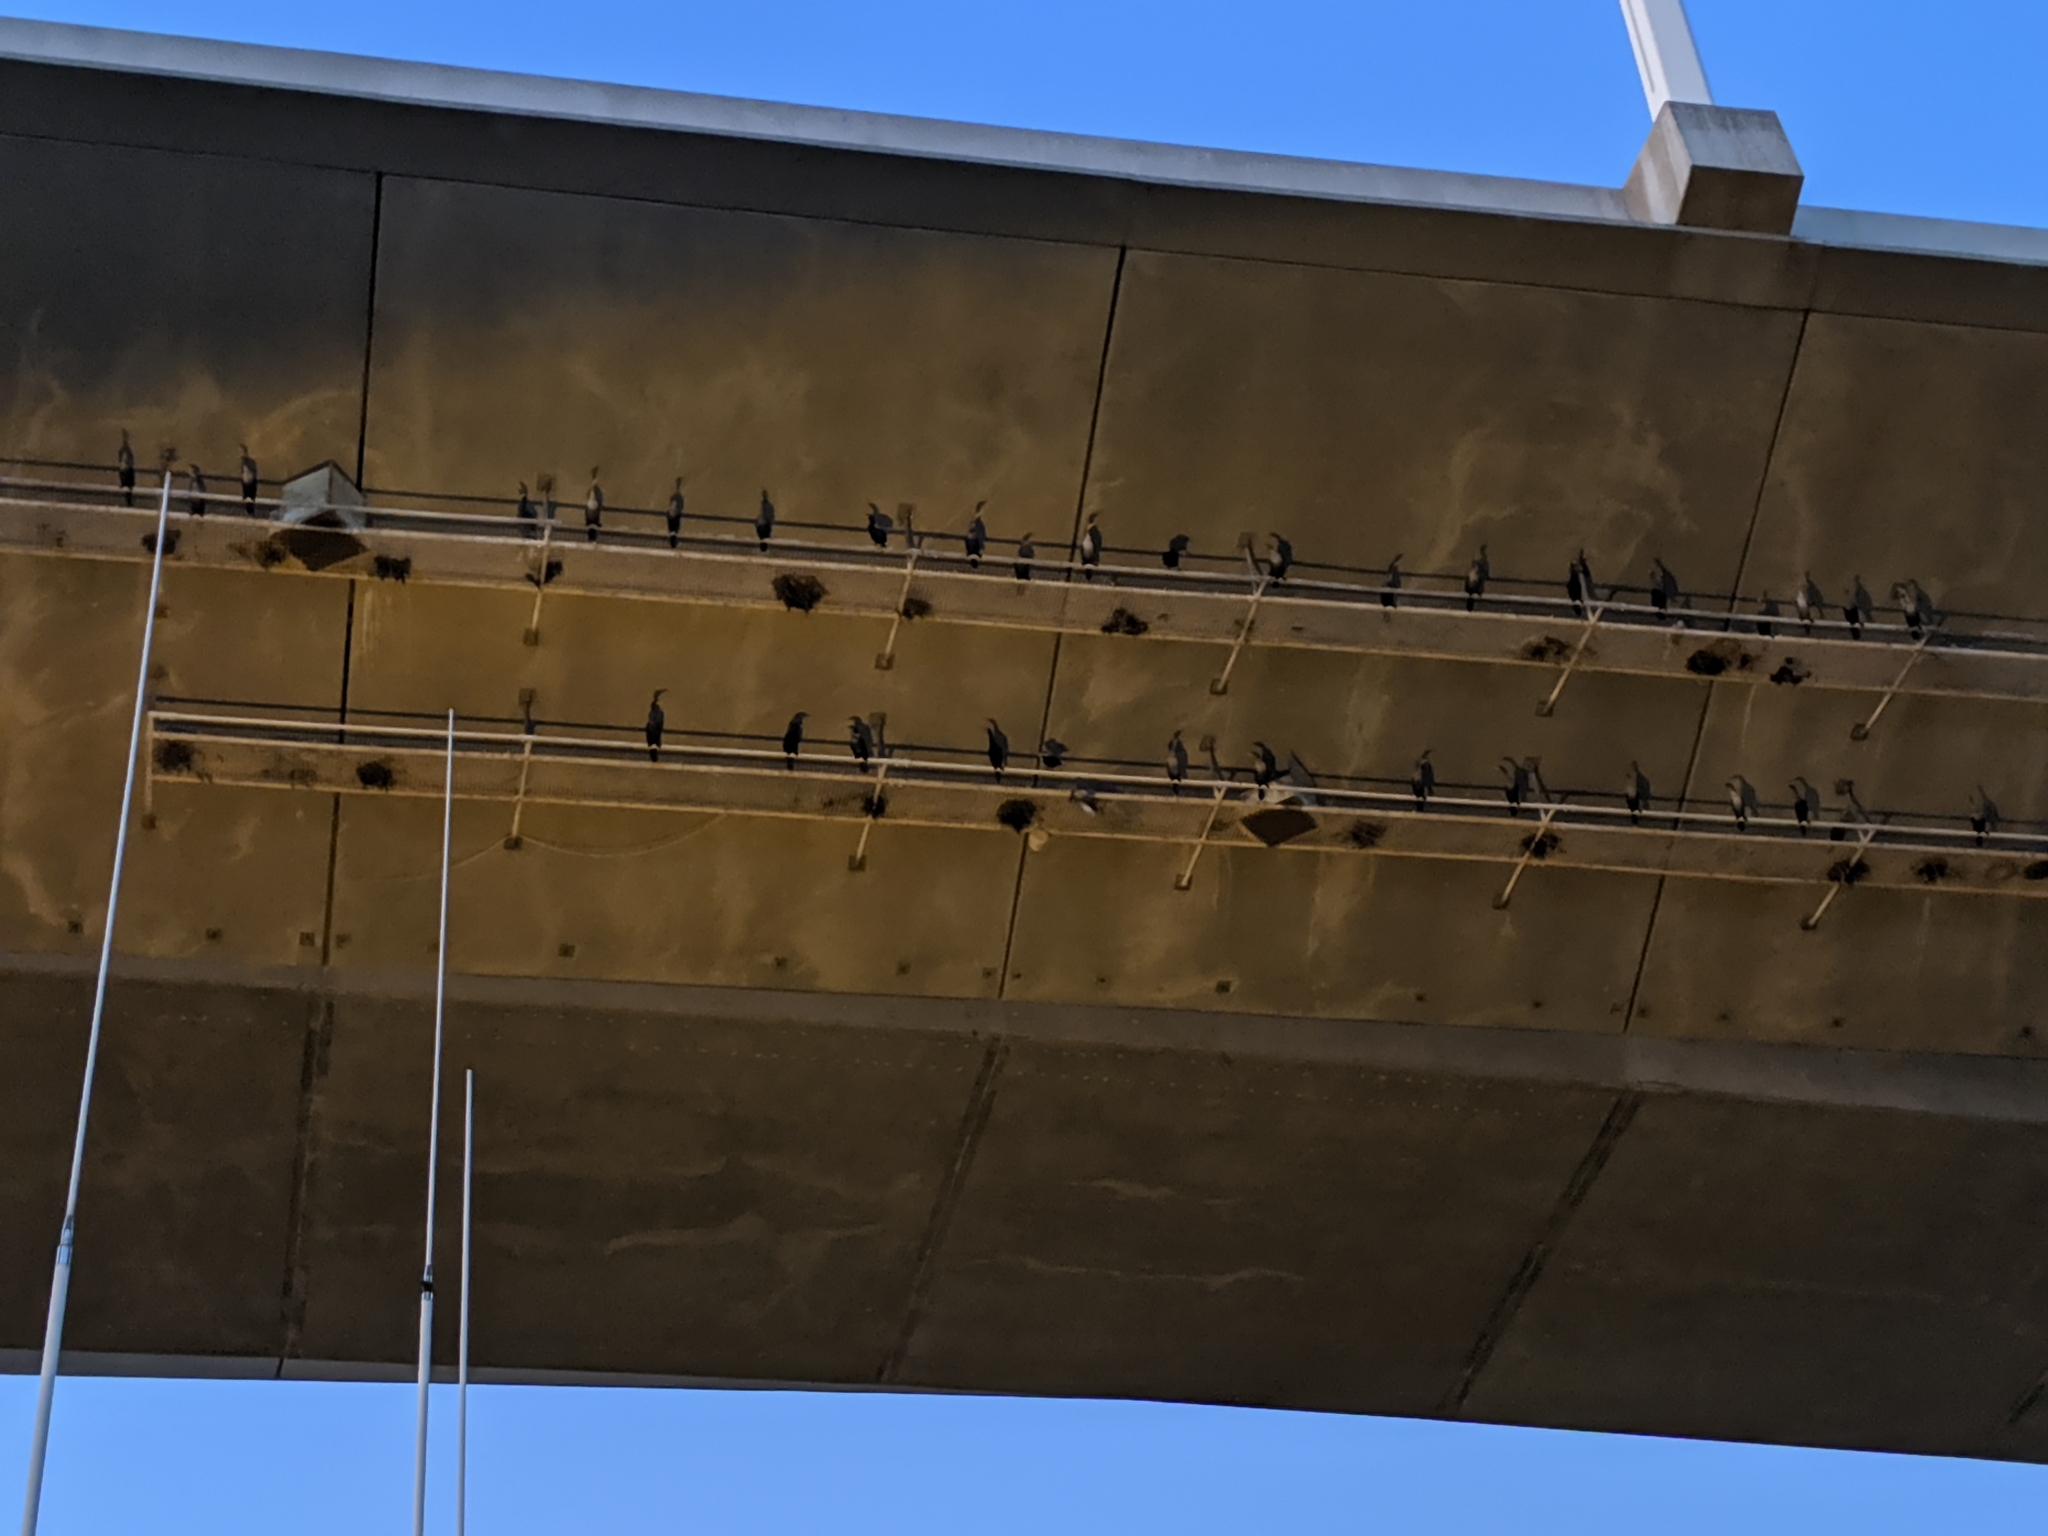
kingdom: Animalia
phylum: Chordata
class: Aves
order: Suliformes
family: Phalacrocoracidae
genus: Phalacrocorax
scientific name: Phalacrocorax auritus
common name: Double-crested cormorant
